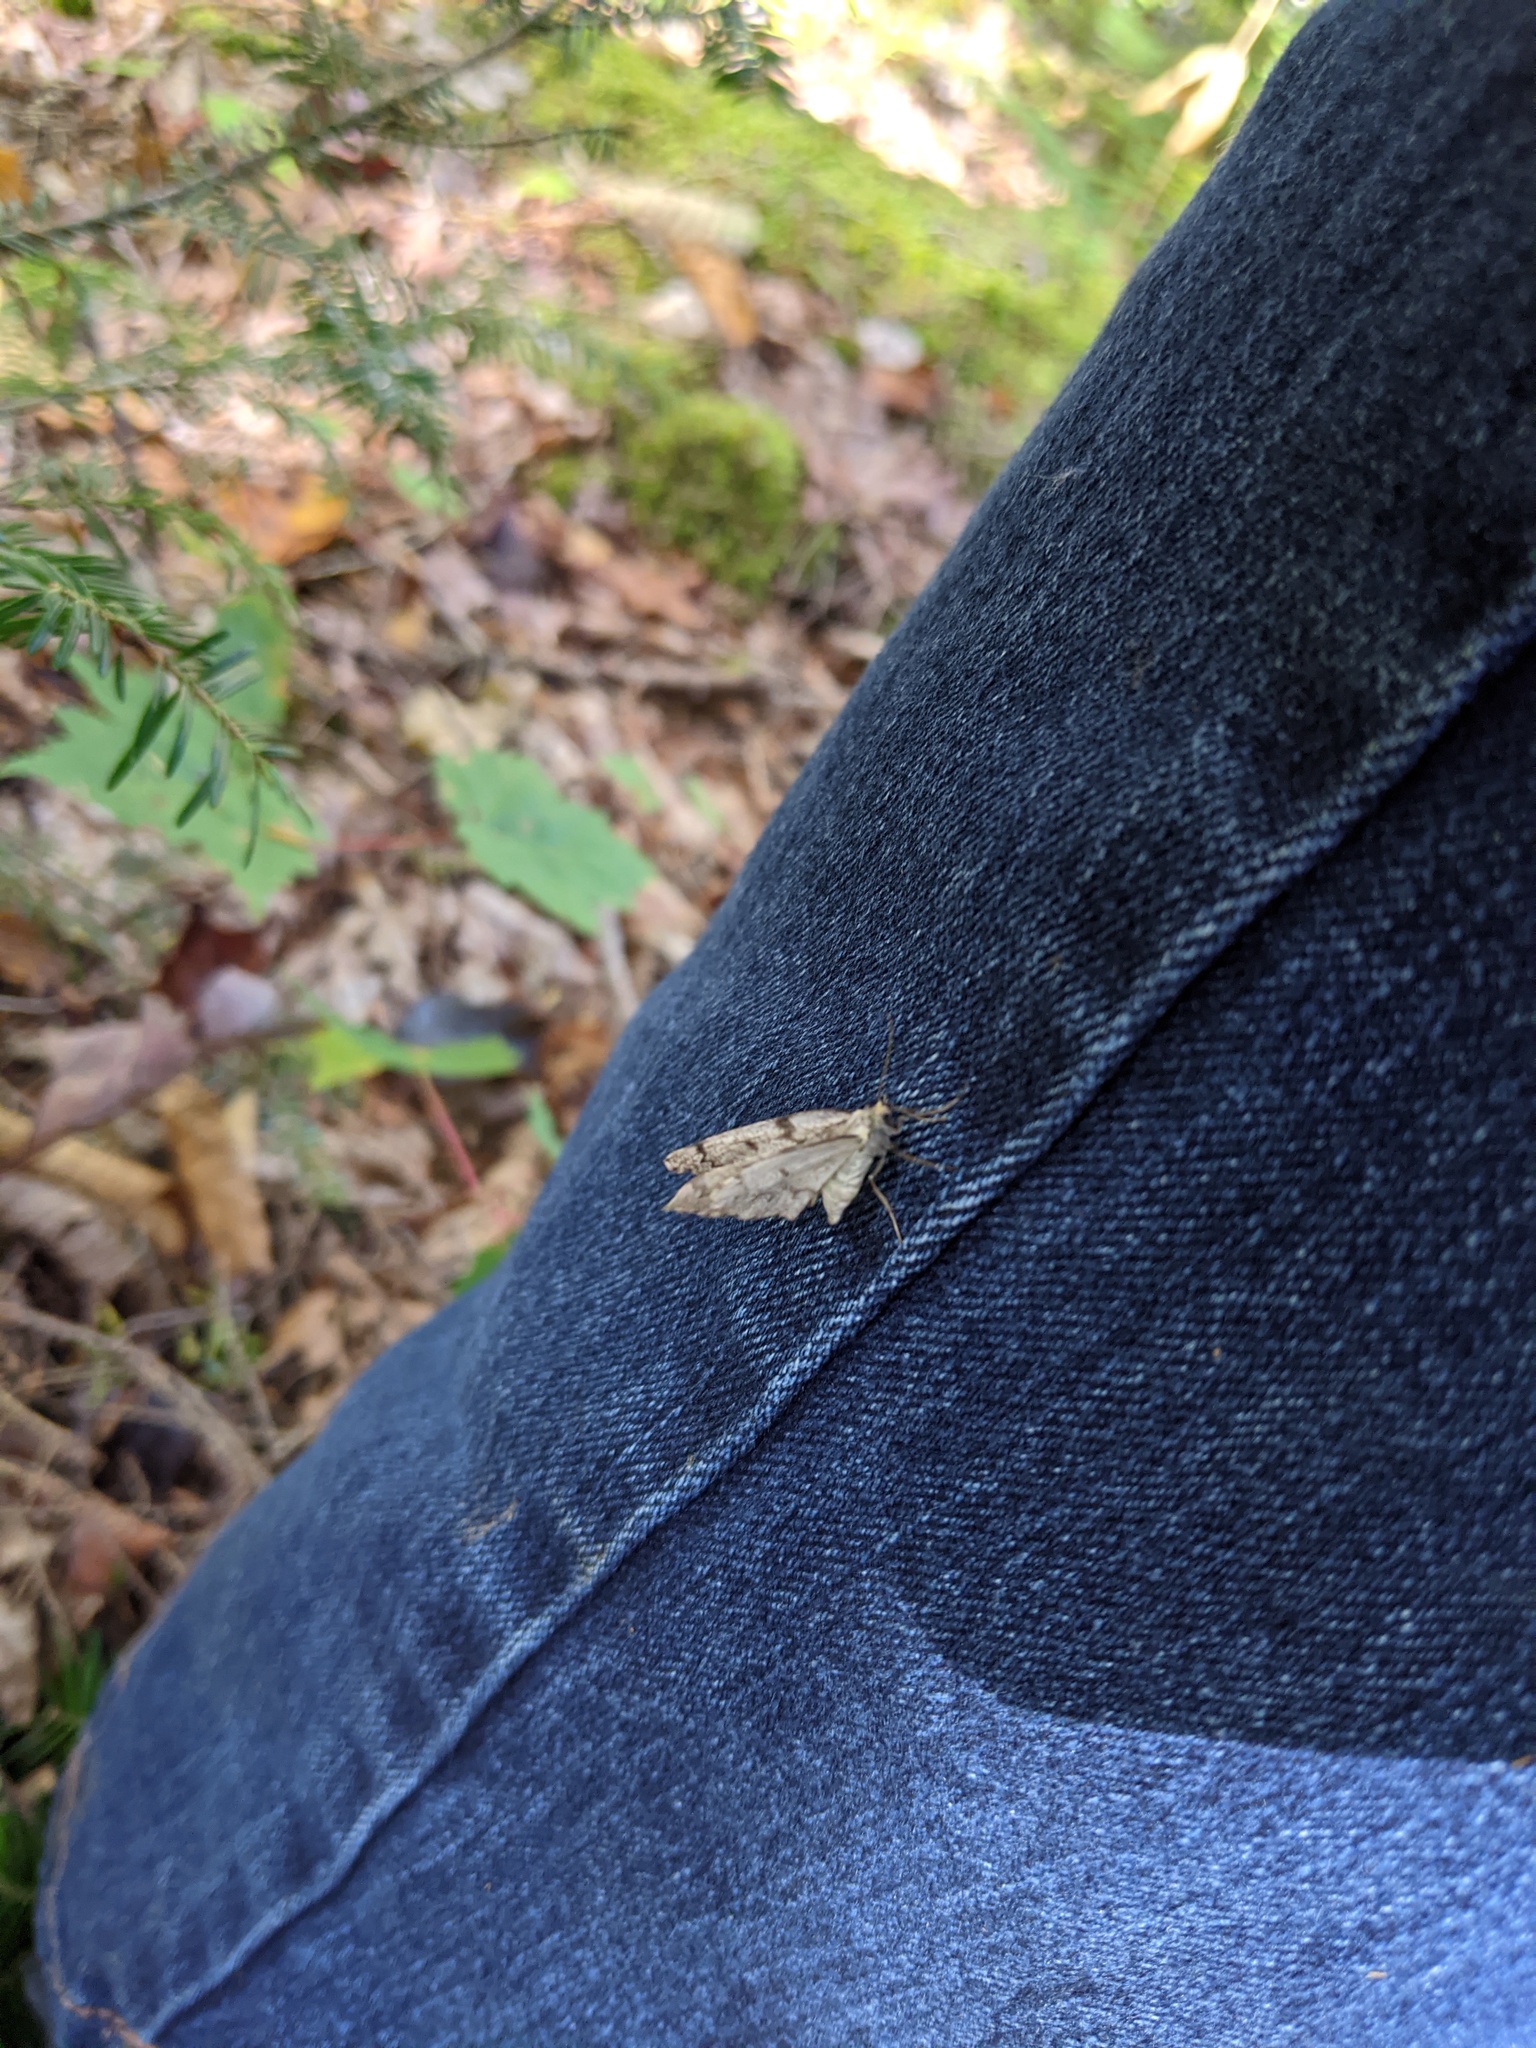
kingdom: Animalia
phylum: Arthropoda
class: Insecta
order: Lepidoptera
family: Geometridae
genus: Nepytia
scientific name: Nepytia canosaria
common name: False hemlock looper
